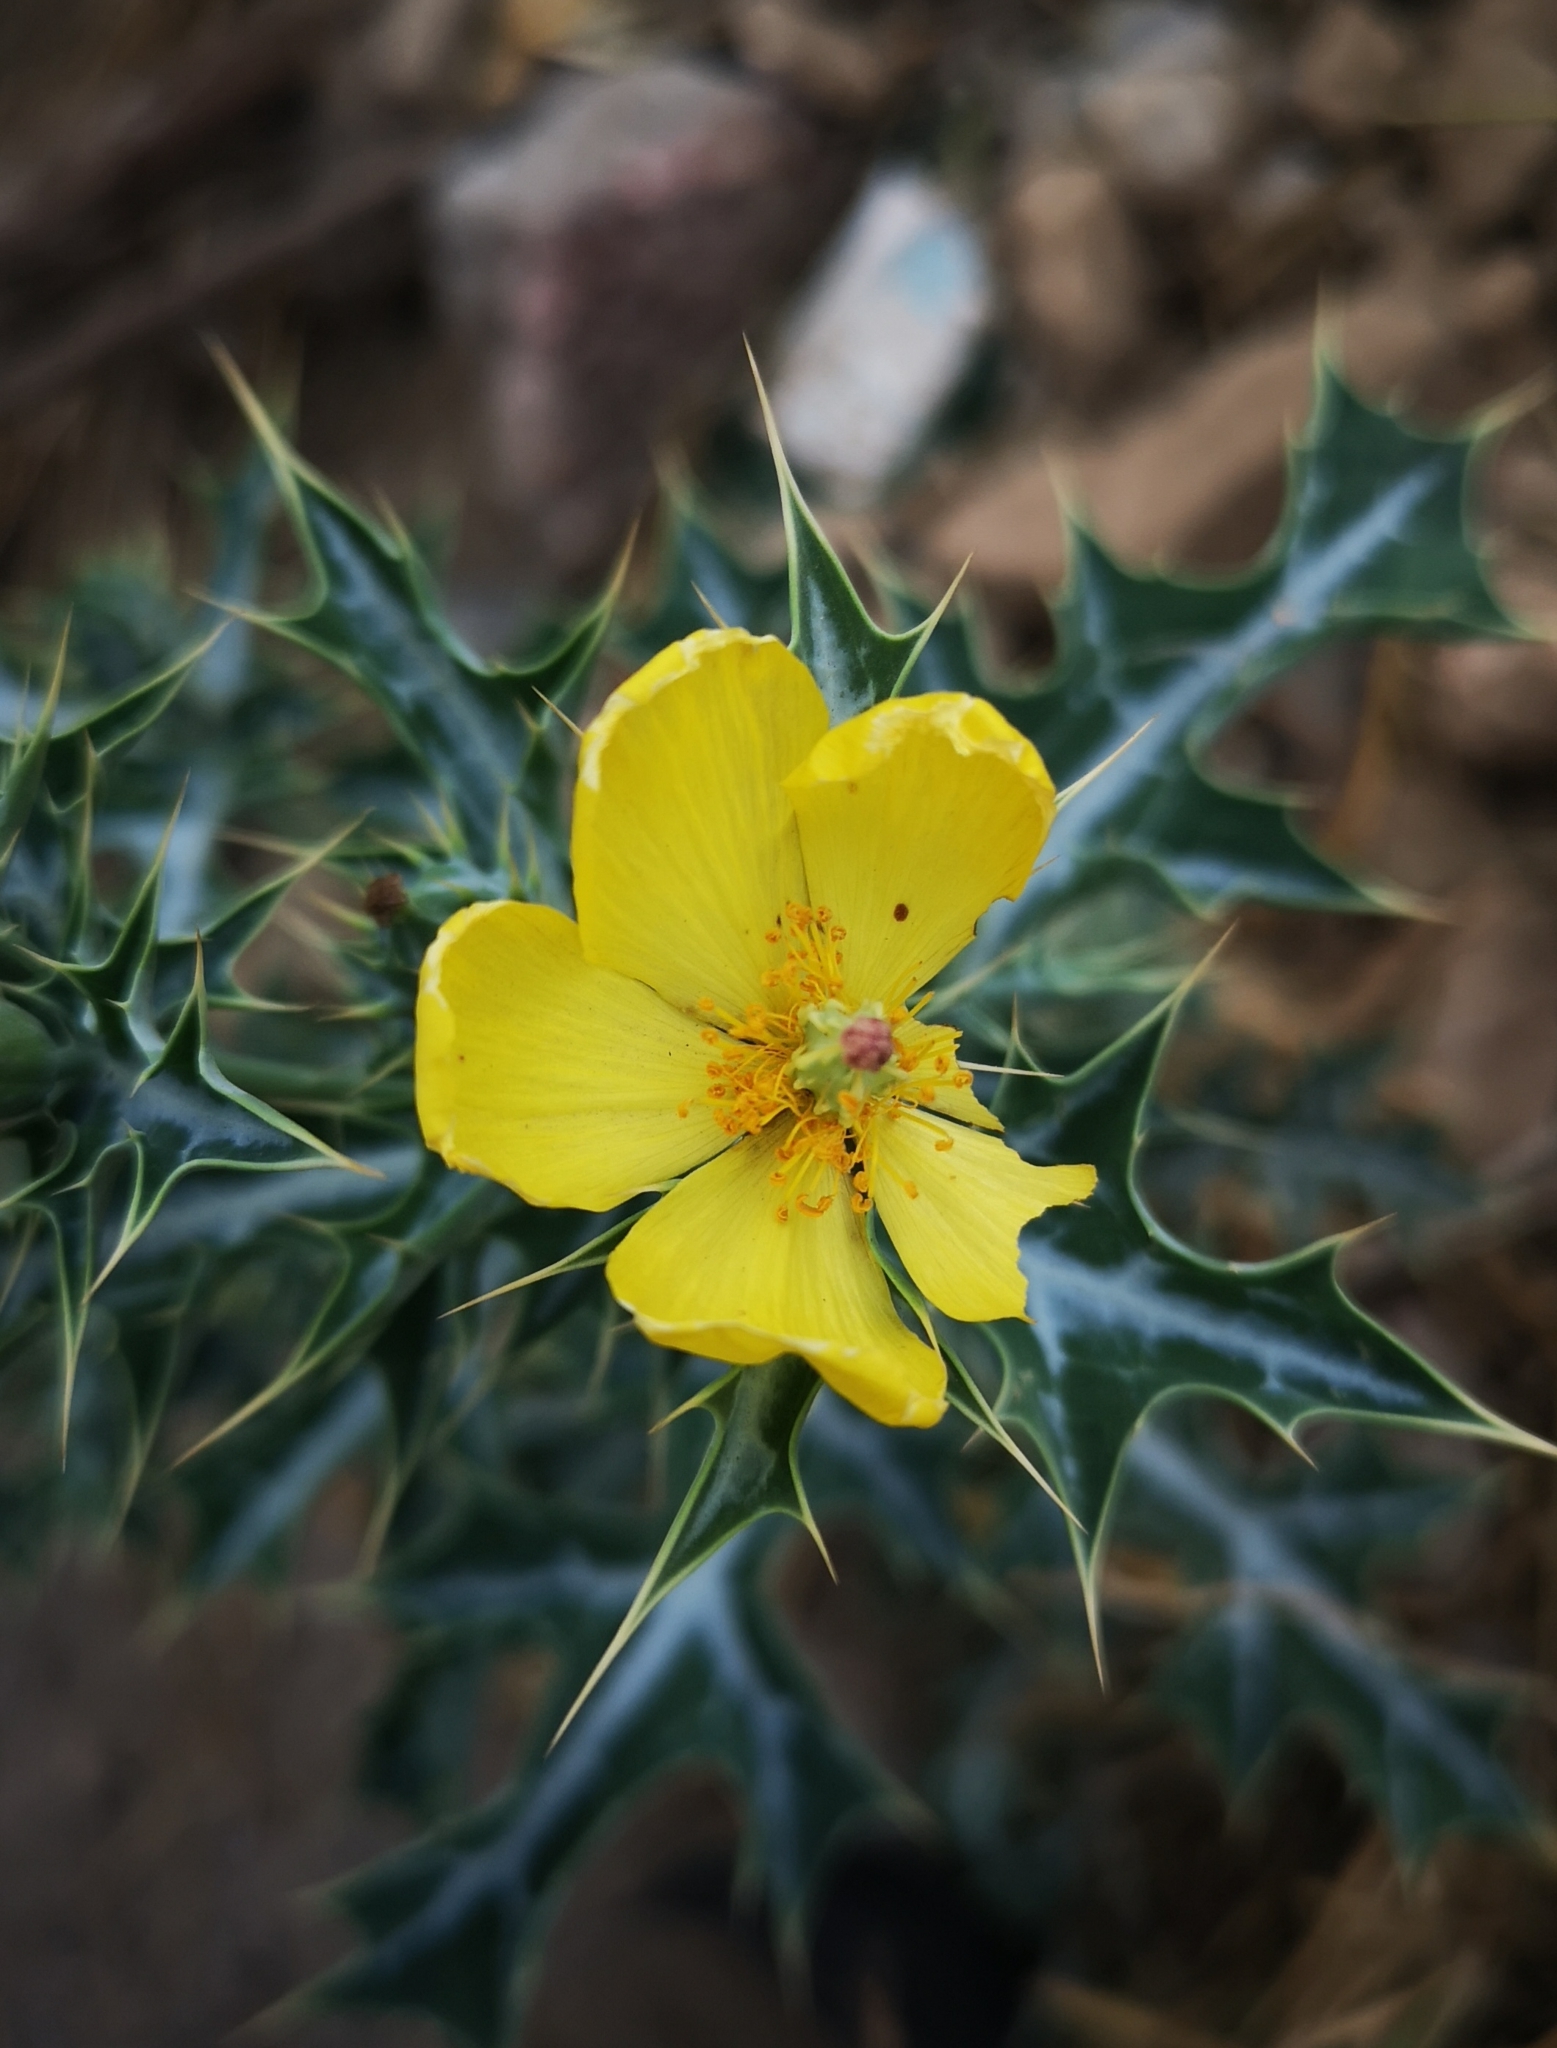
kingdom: Plantae
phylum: Tracheophyta
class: Magnoliopsida
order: Ranunculales
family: Papaveraceae
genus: Argemone
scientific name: Argemone mexicana
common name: Mexican poppy
